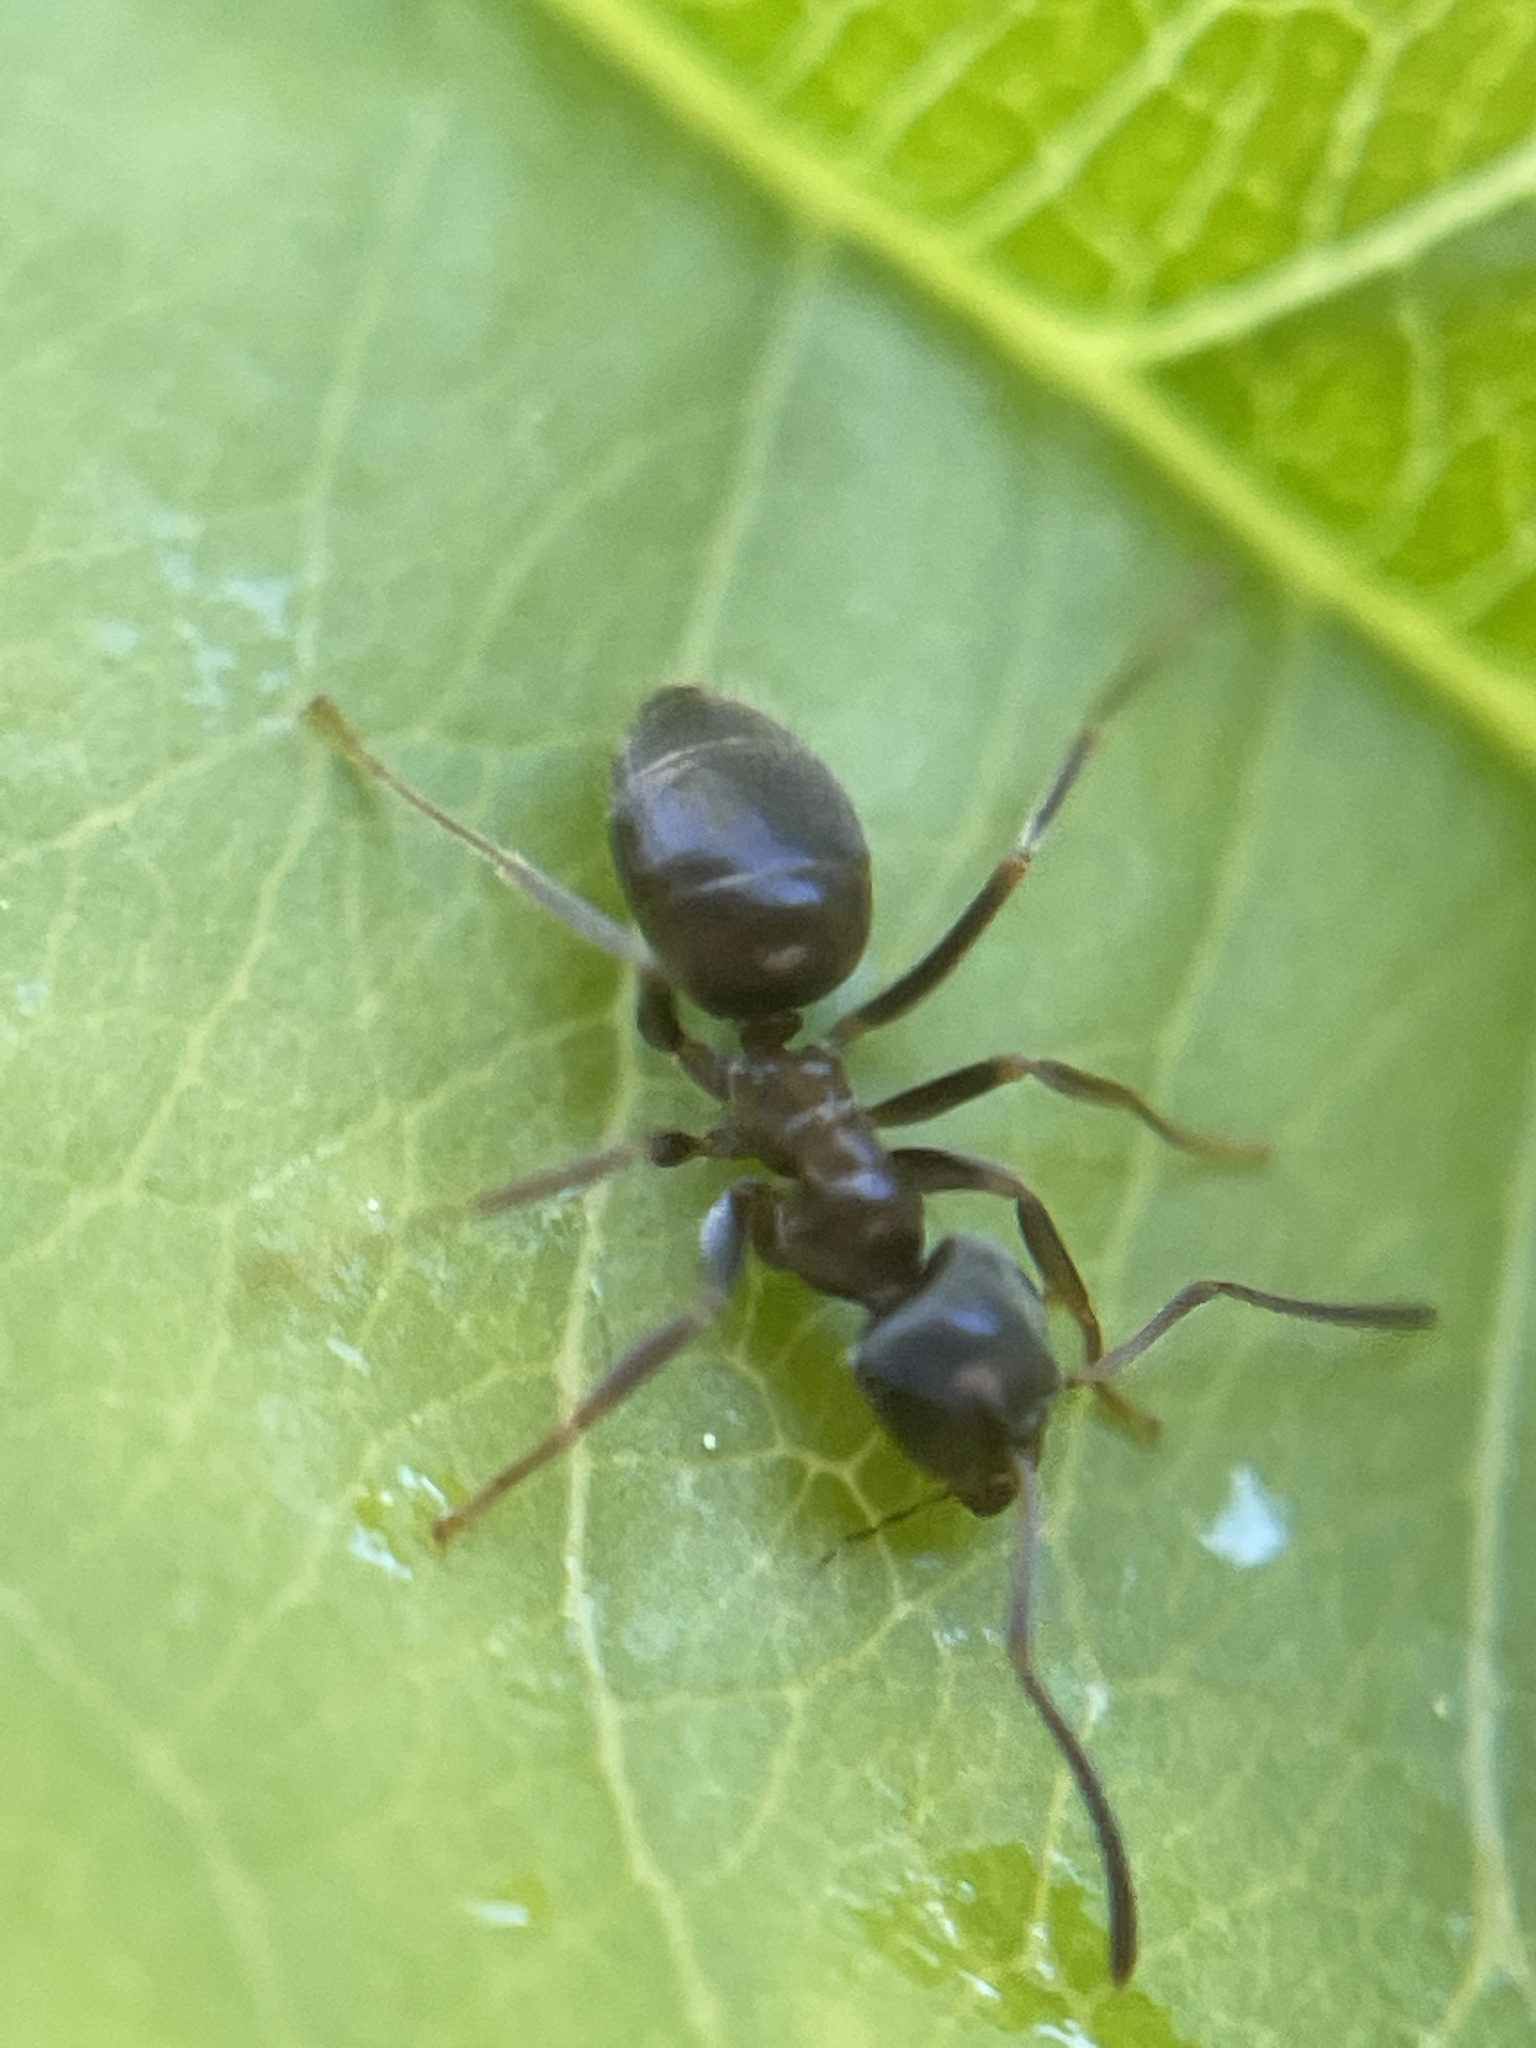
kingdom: Animalia
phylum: Arthropoda
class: Insecta
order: Hymenoptera
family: Formicidae
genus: Lasius
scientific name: Lasius niger
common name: Small black ant
